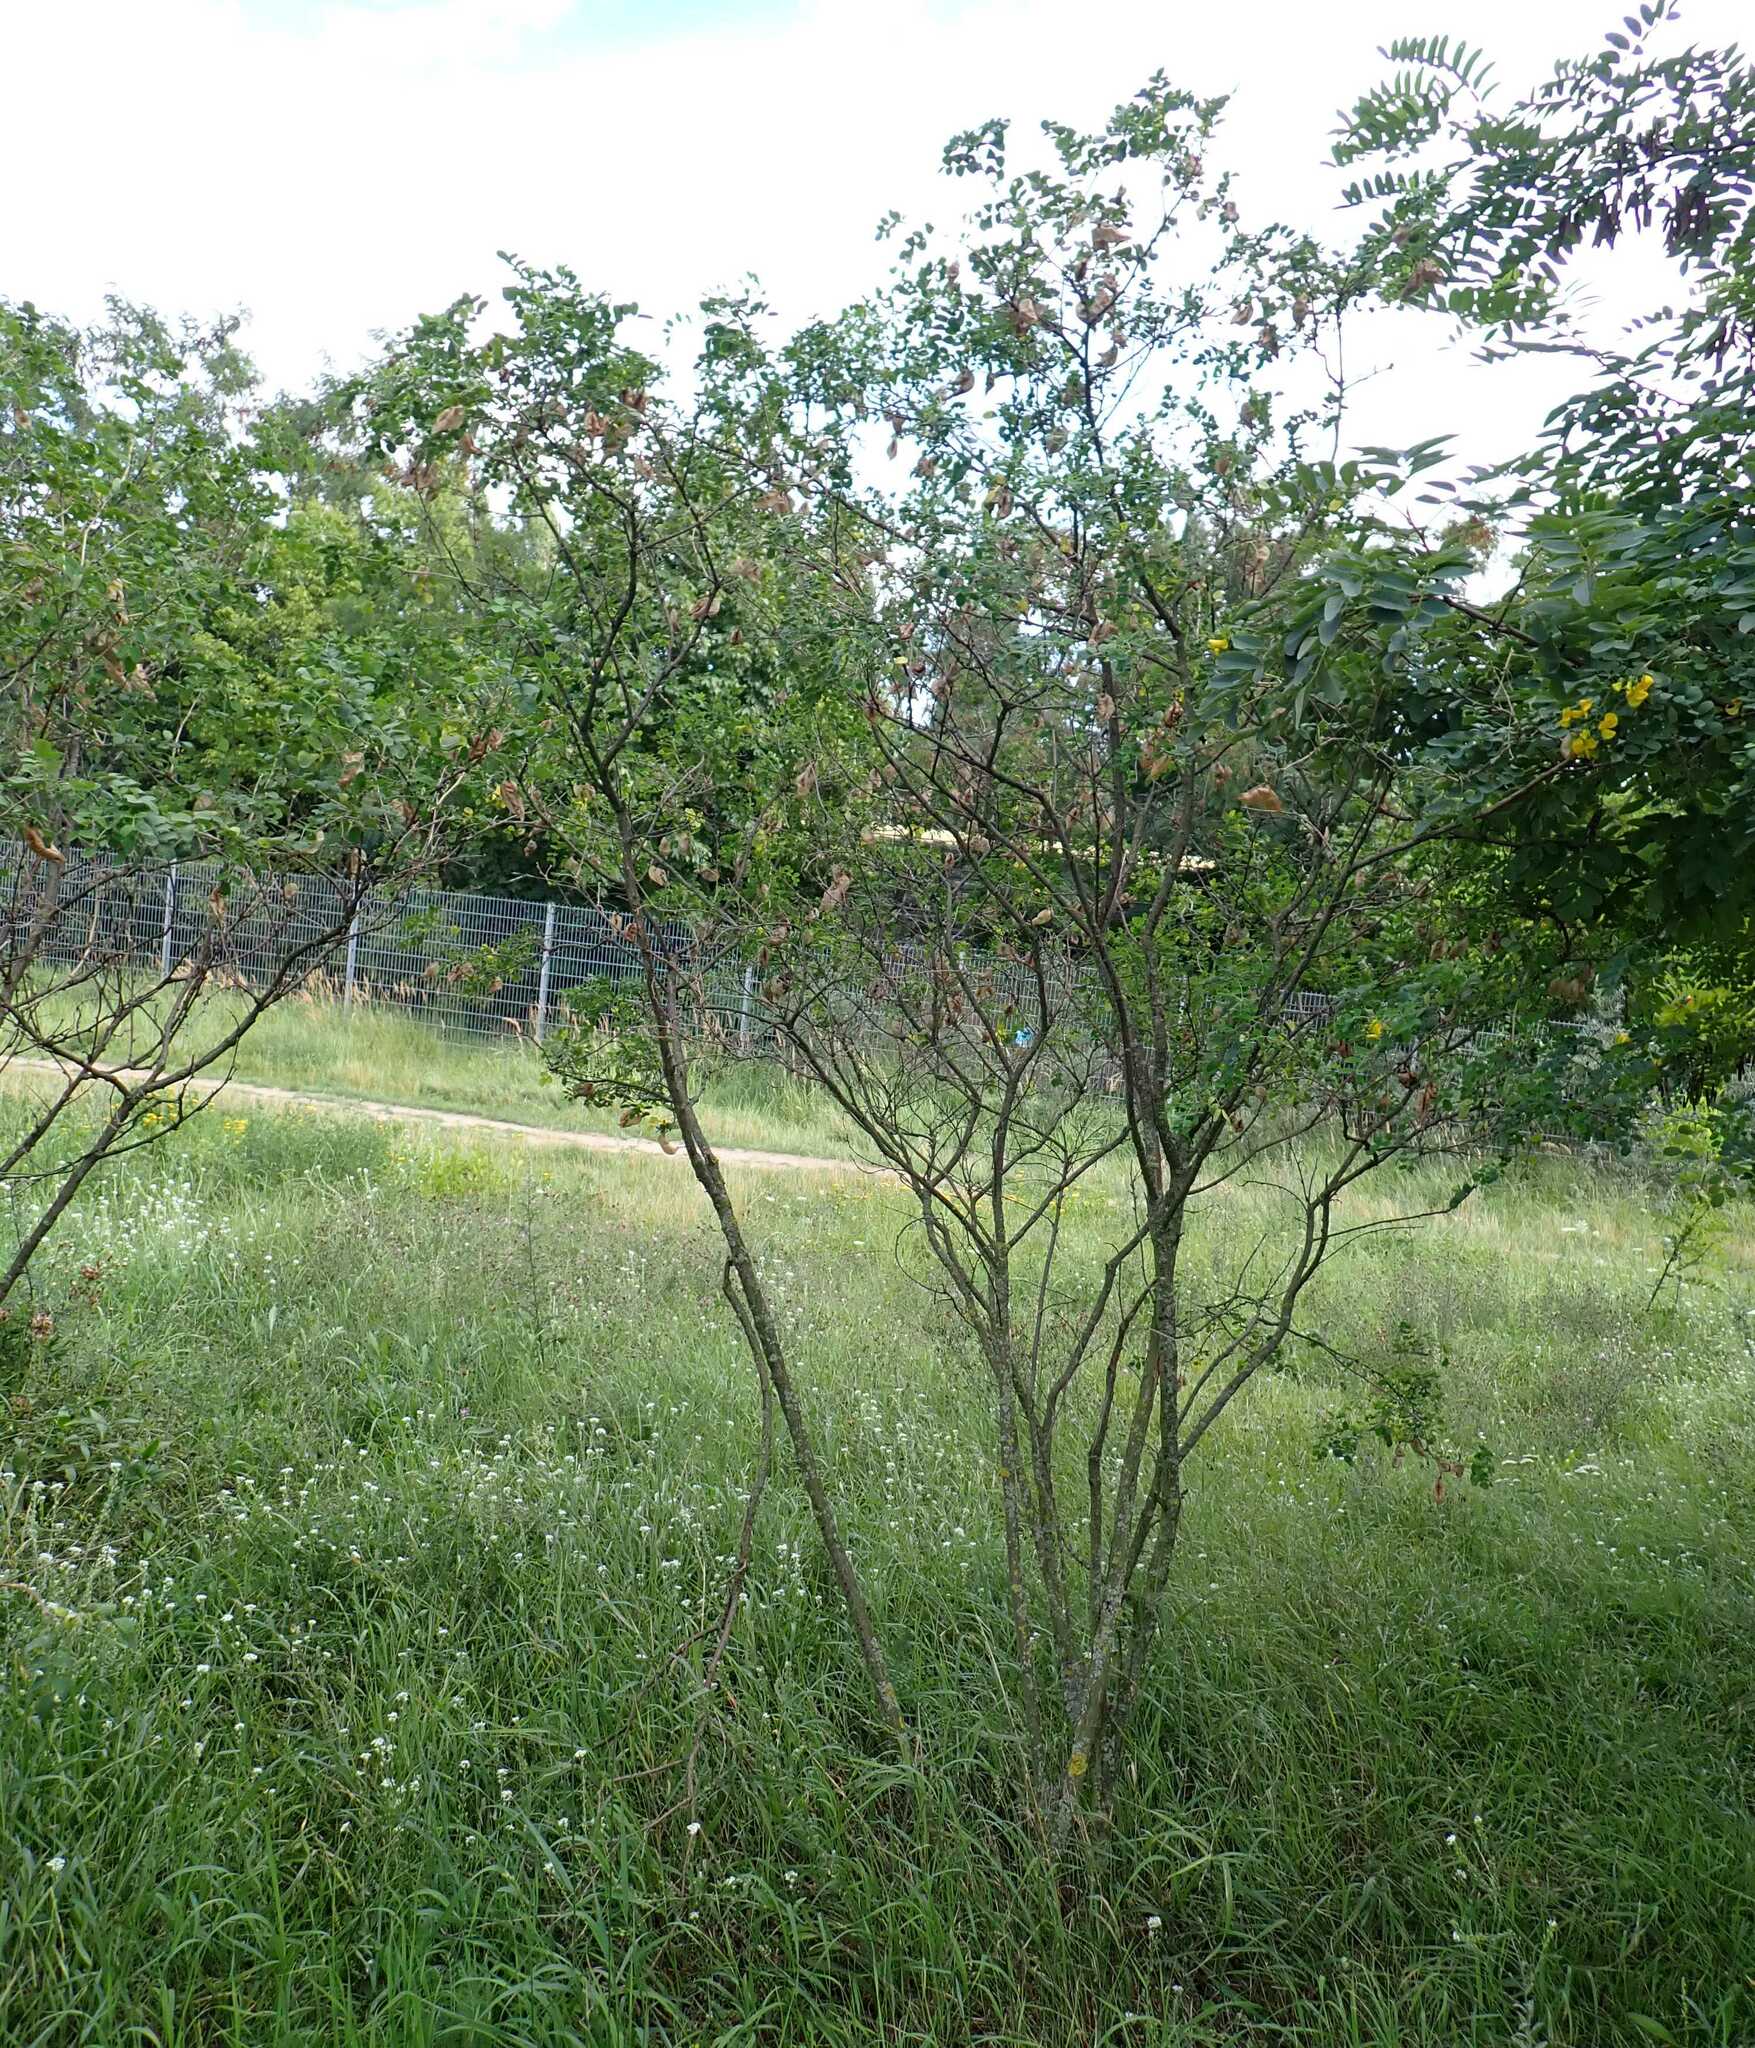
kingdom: Plantae
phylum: Tracheophyta
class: Magnoliopsida
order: Fabales
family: Fabaceae
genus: Colutea
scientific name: Colutea arborescens
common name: Bladder-senna
